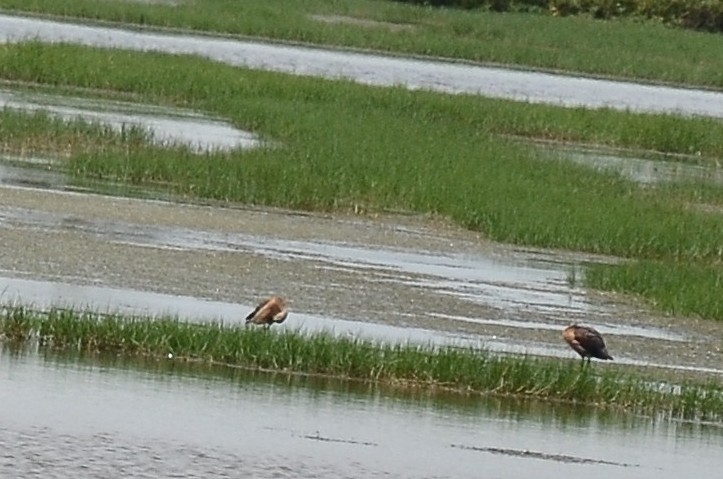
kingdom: Animalia
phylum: Chordata
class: Aves
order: Anseriformes
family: Anatidae
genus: Dendrocygna
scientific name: Dendrocygna javanica
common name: Lesser whistling-duck
